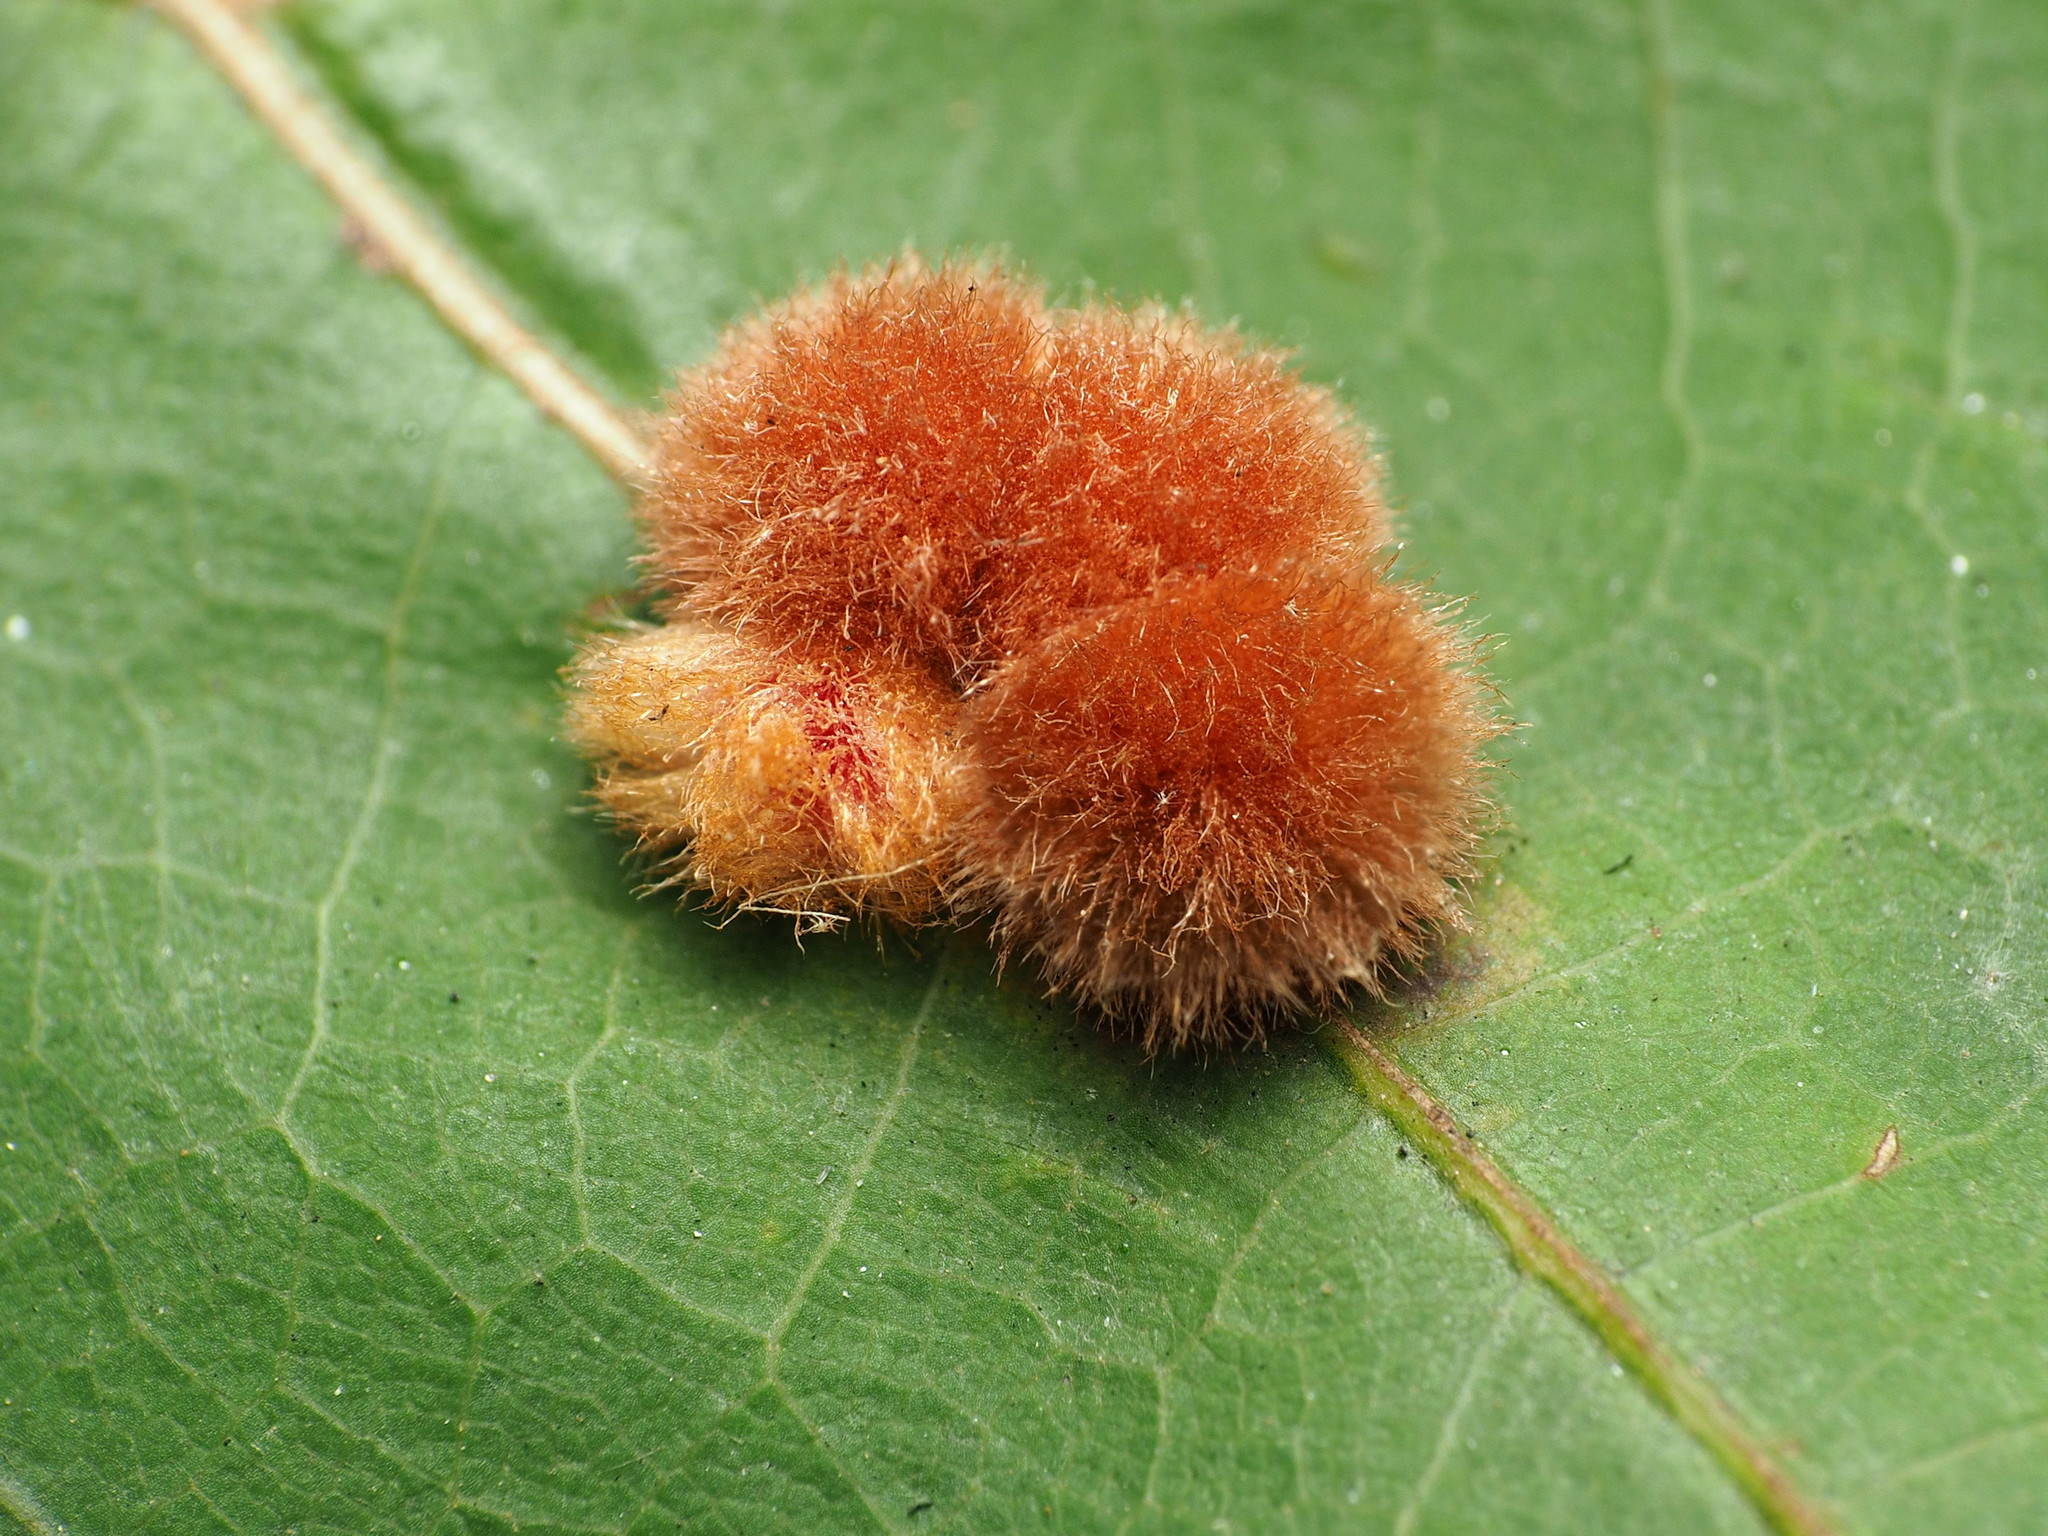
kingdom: Animalia
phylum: Arthropoda
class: Insecta
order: Hymenoptera
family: Cynipidae
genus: Callirhytis
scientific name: Callirhytis
